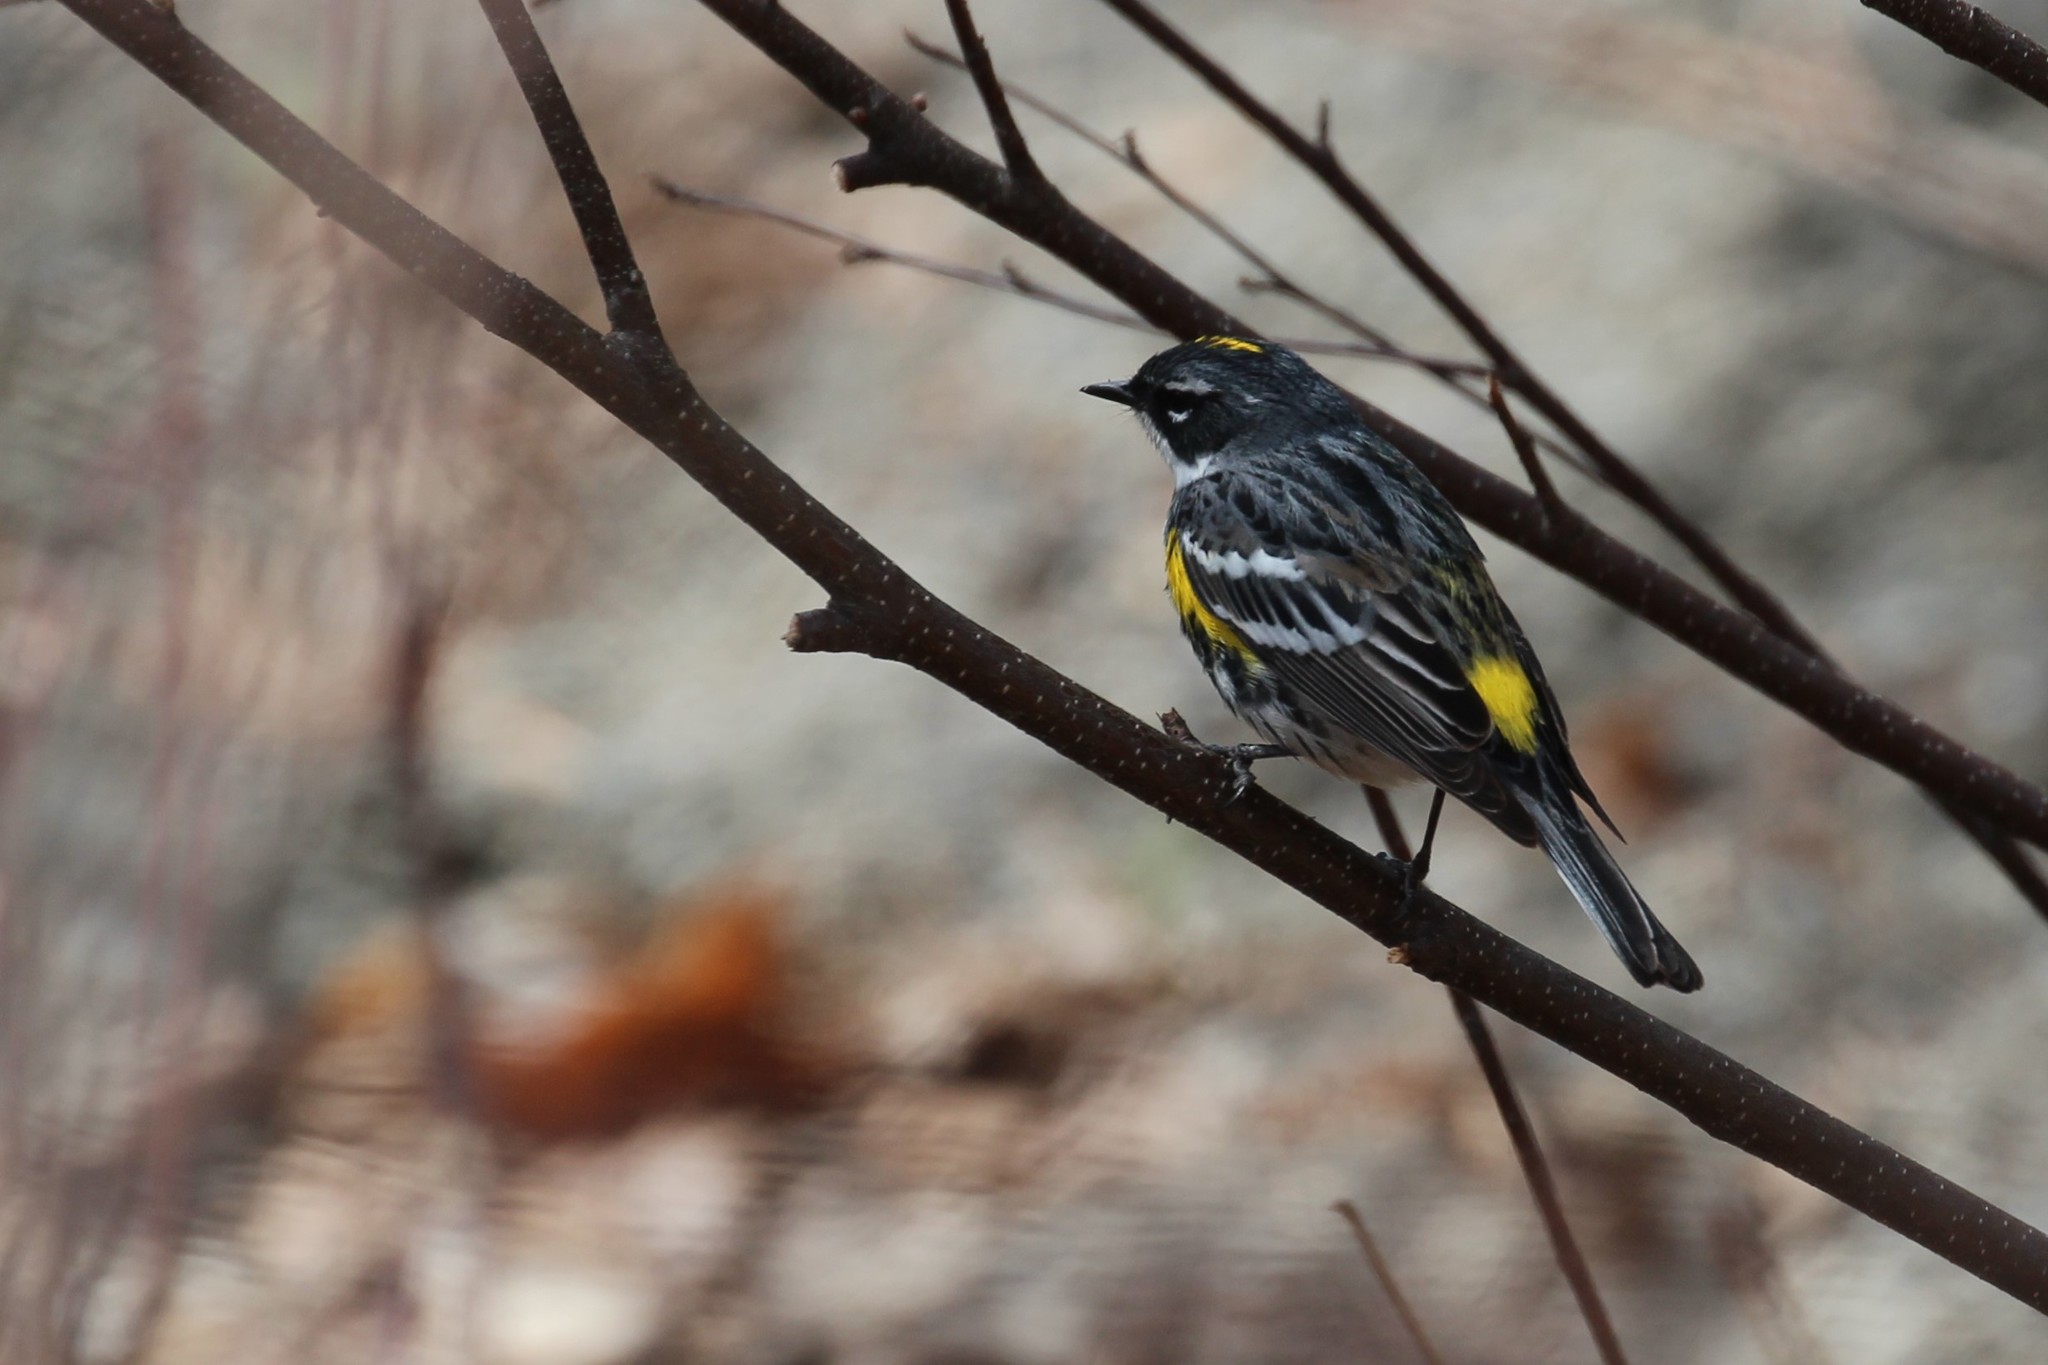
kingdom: Animalia
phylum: Chordata
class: Aves
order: Passeriformes
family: Parulidae
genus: Setophaga
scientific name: Setophaga coronata
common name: Myrtle warbler
